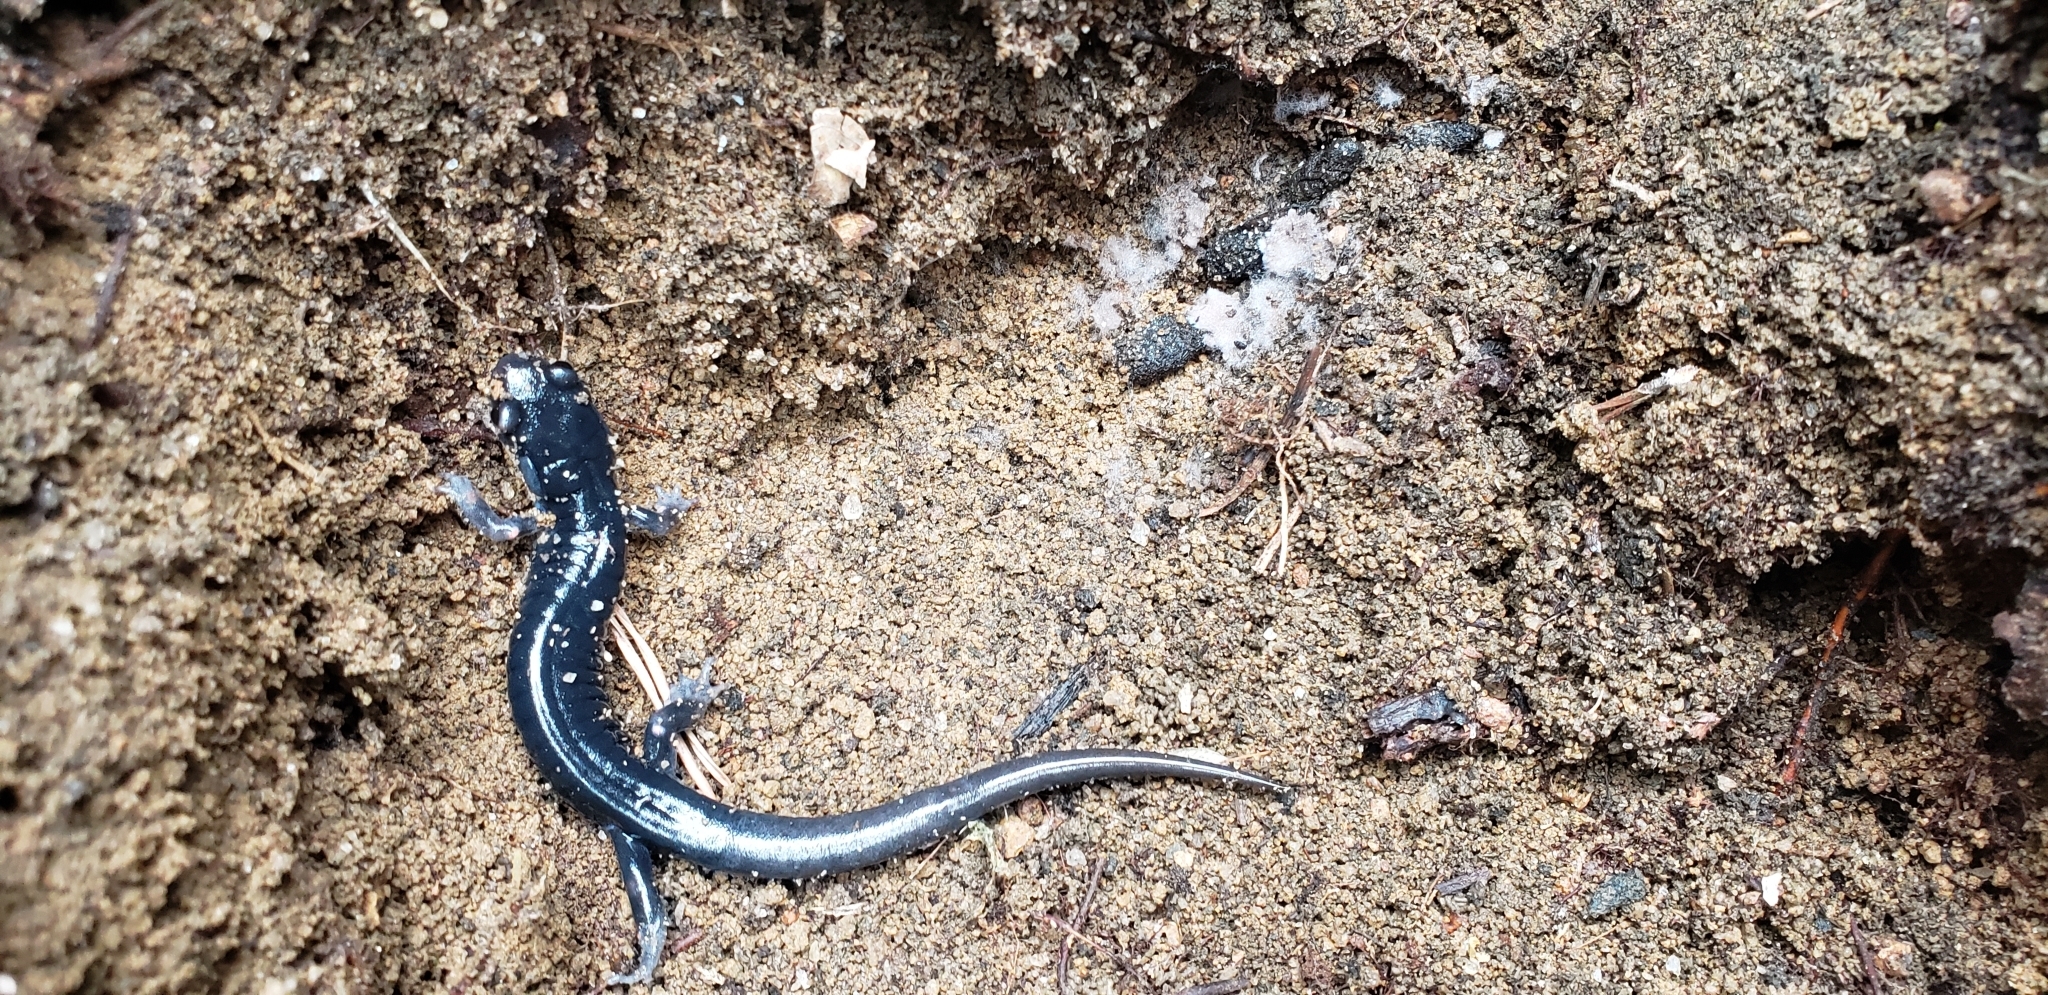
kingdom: Animalia
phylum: Chordata
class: Amphibia
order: Caudata
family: Plethodontidae
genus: Plethodon
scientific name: Plethodon meridianus
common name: South mountain gray-cheeked salamander
